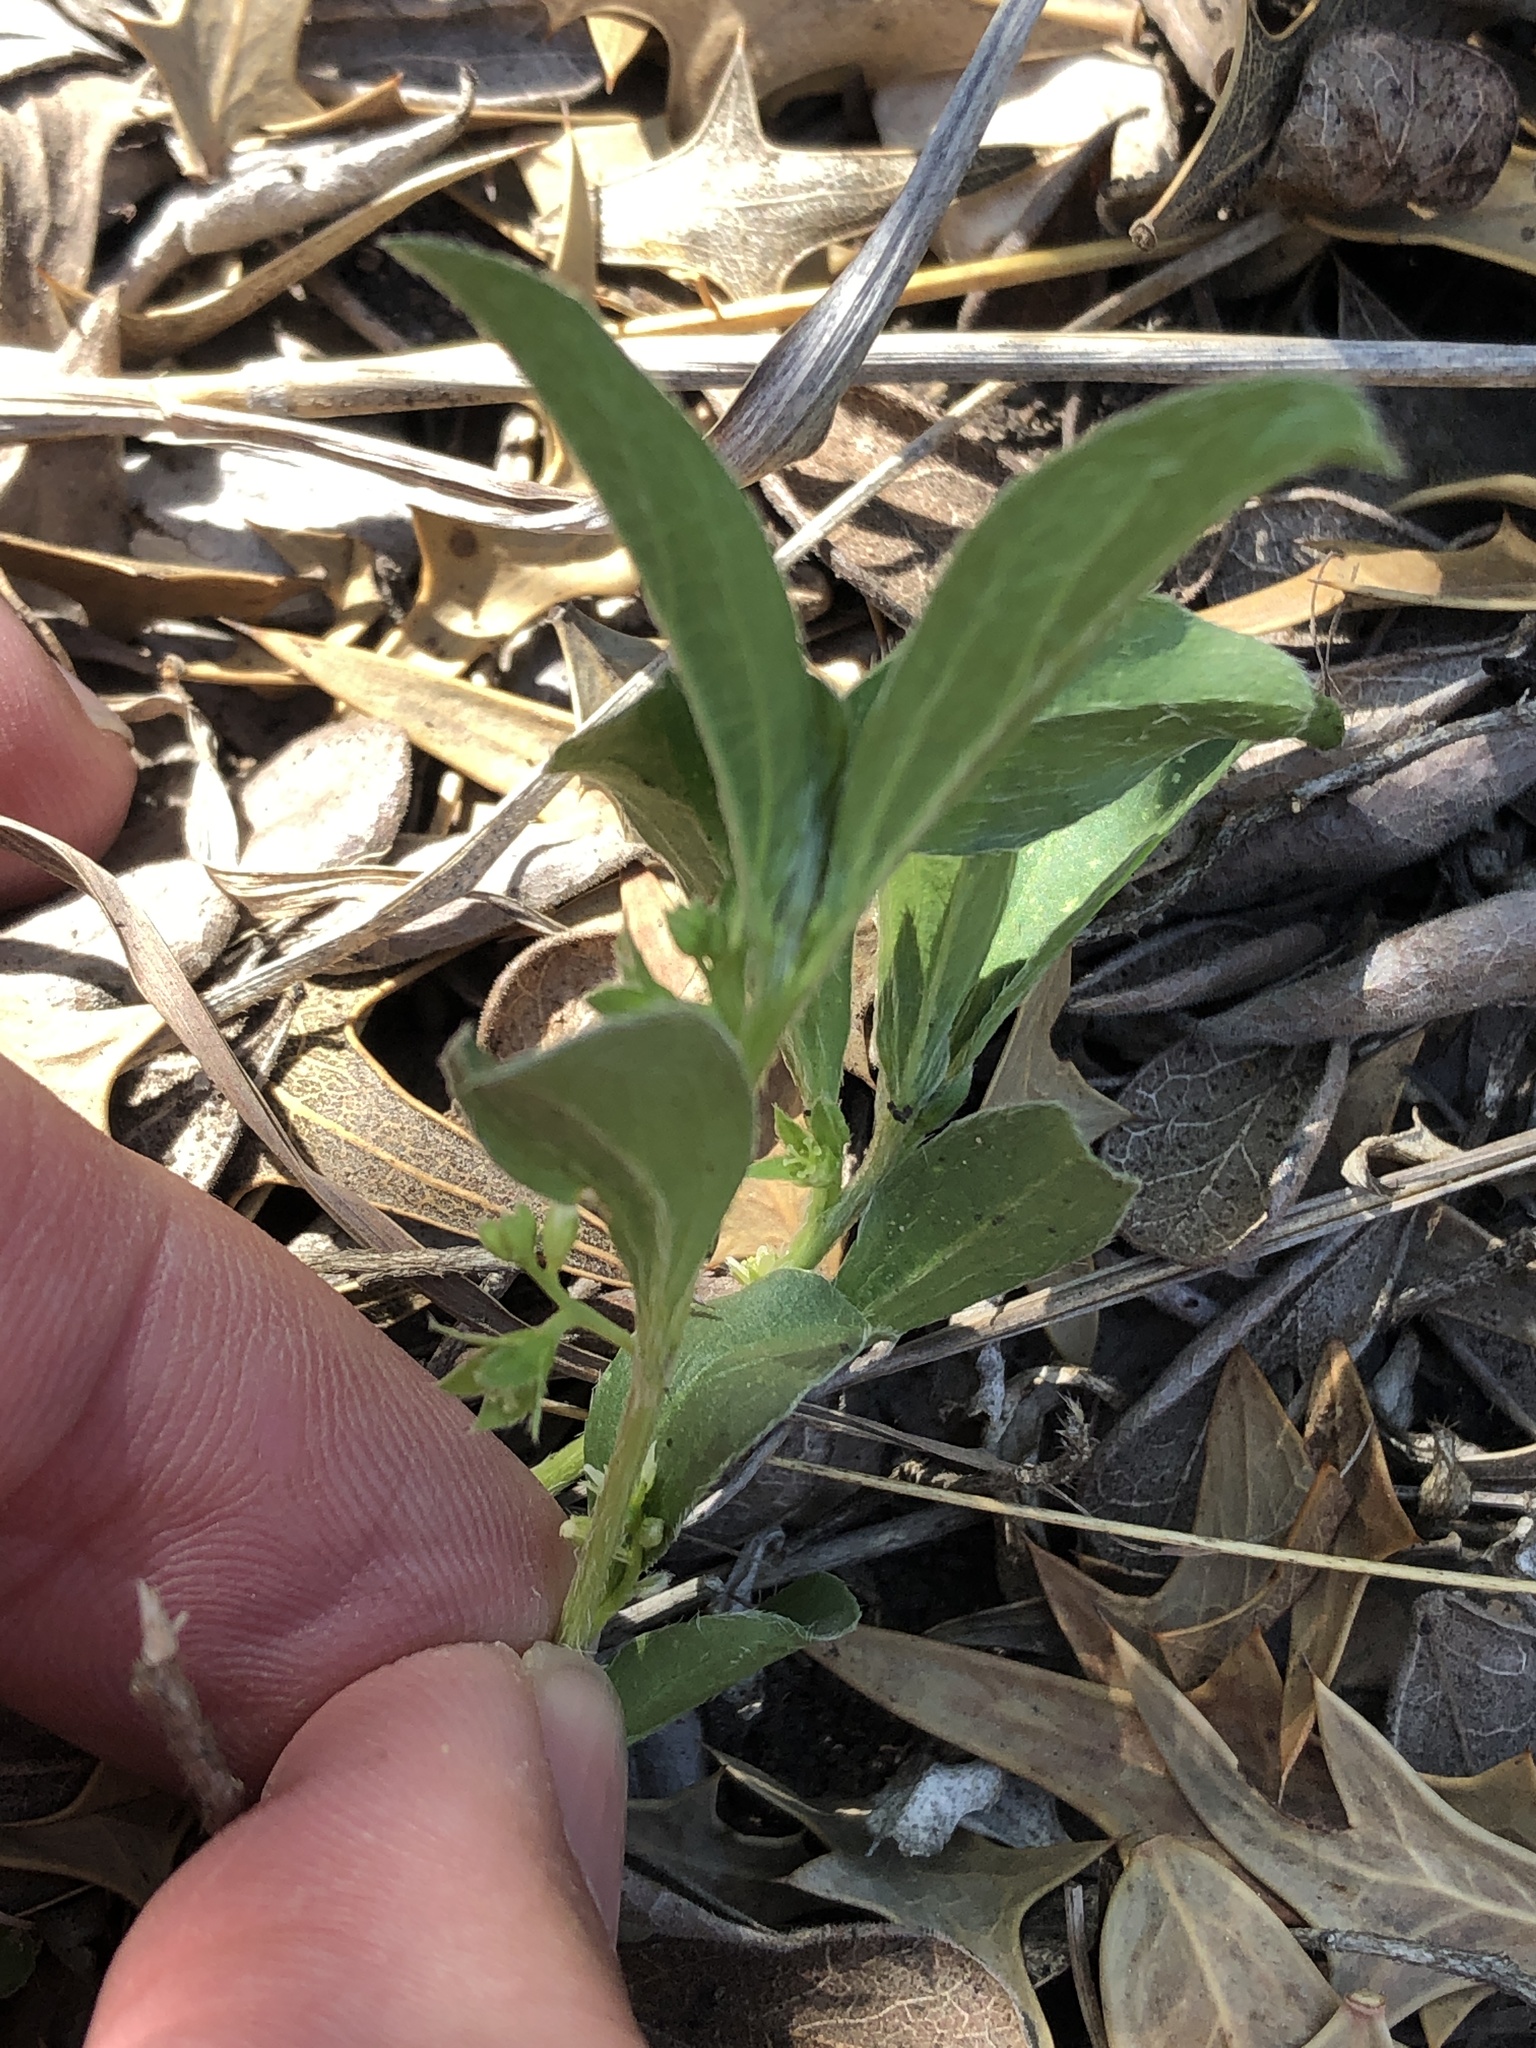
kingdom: Plantae
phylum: Tracheophyta
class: Magnoliopsida
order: Malpighiales
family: Euphorbiaceae
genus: Ditaxis
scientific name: Ditaxis humilis
